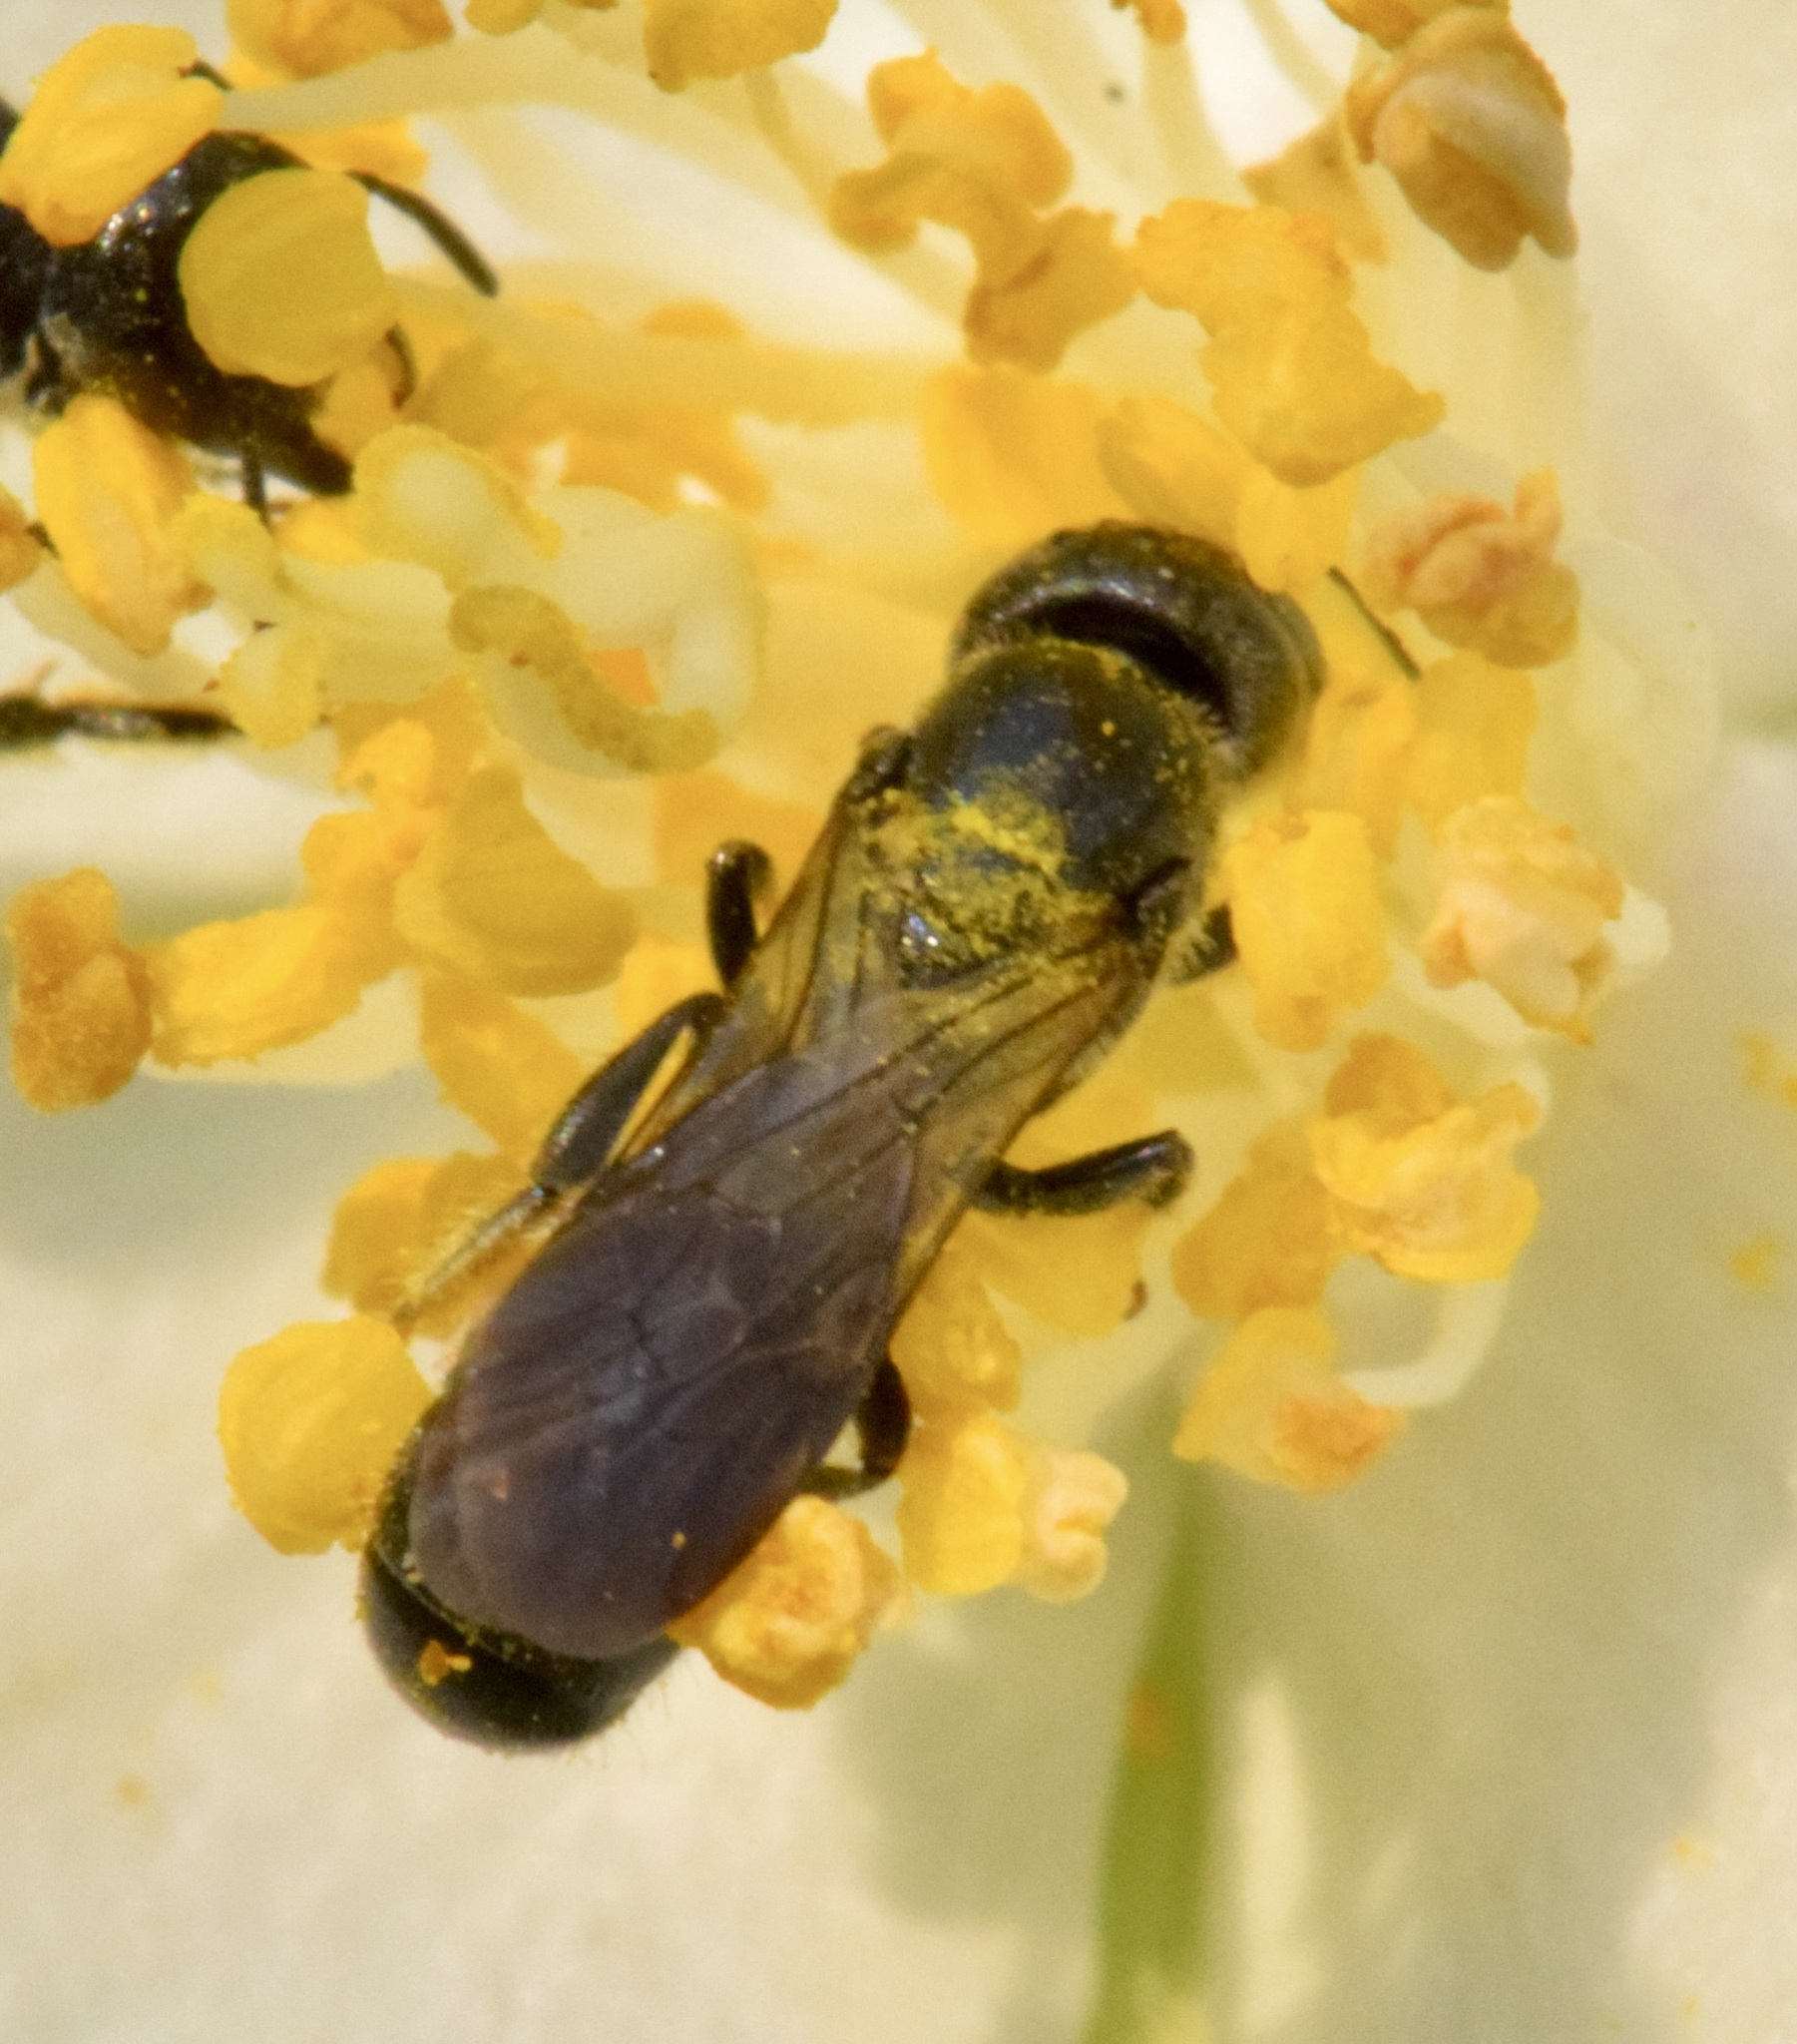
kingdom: Animalia
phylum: Arthropoda
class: Insecta
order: Hymenoptera
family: Megachilidae
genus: Chelostoma
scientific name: Chelostoma philadelphi
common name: Mock-orange scissor bee
